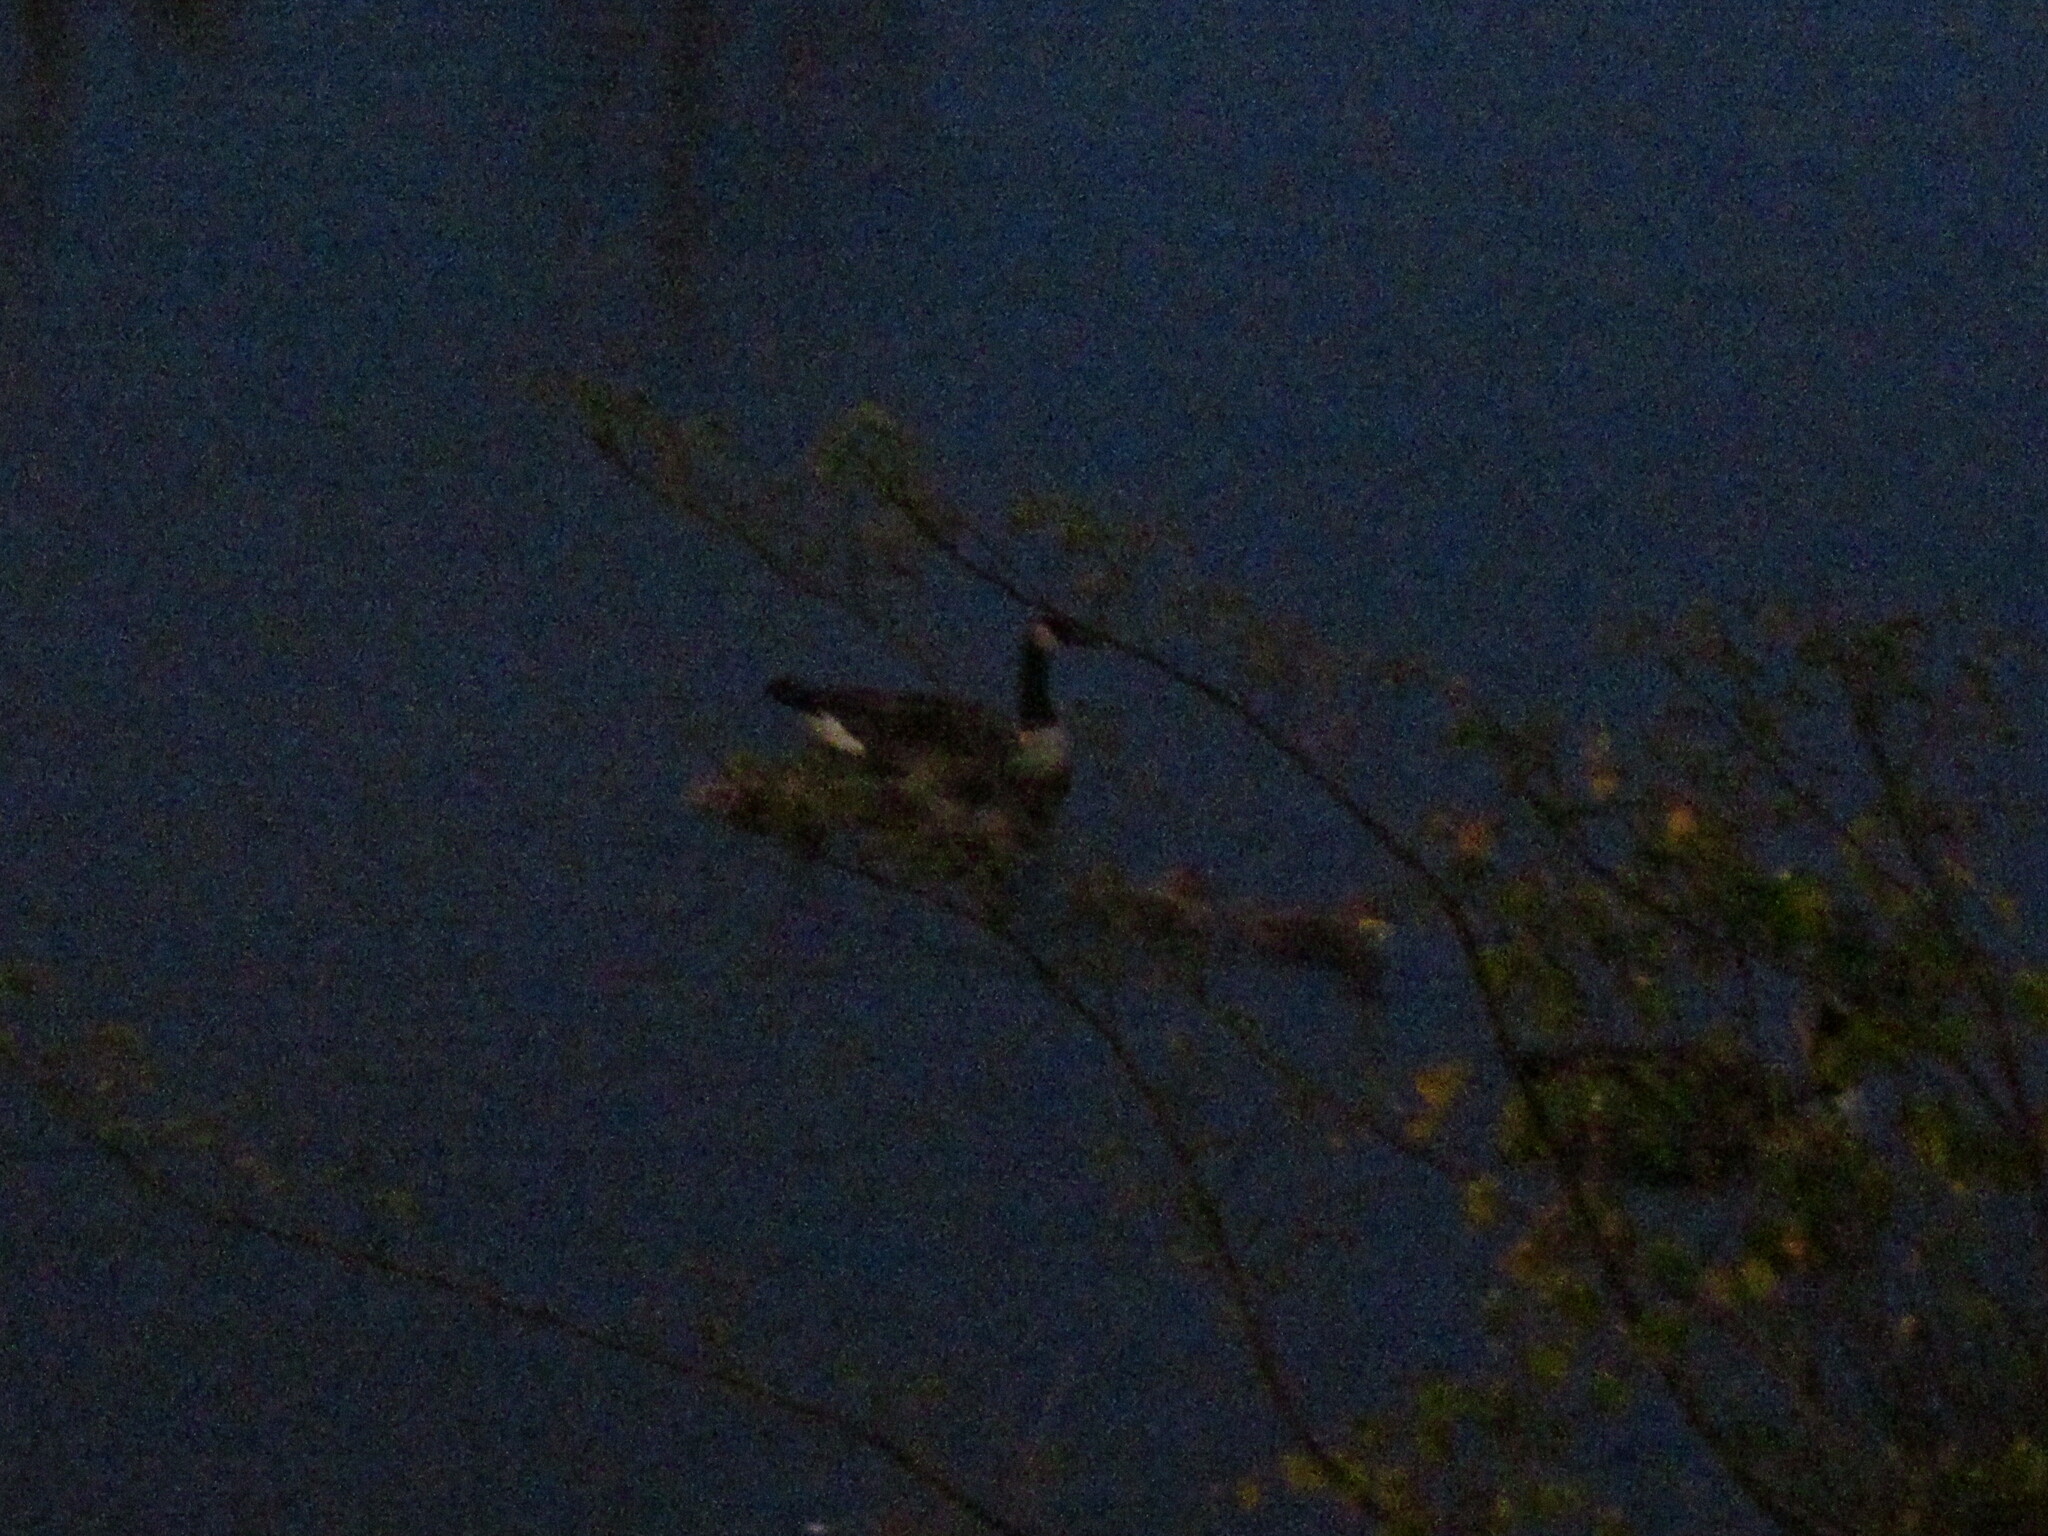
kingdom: Animalia
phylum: Chordata
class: Aves
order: Anseriformes
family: Anatidae
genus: Branta
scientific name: Branta canadensis
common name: Canada goose
